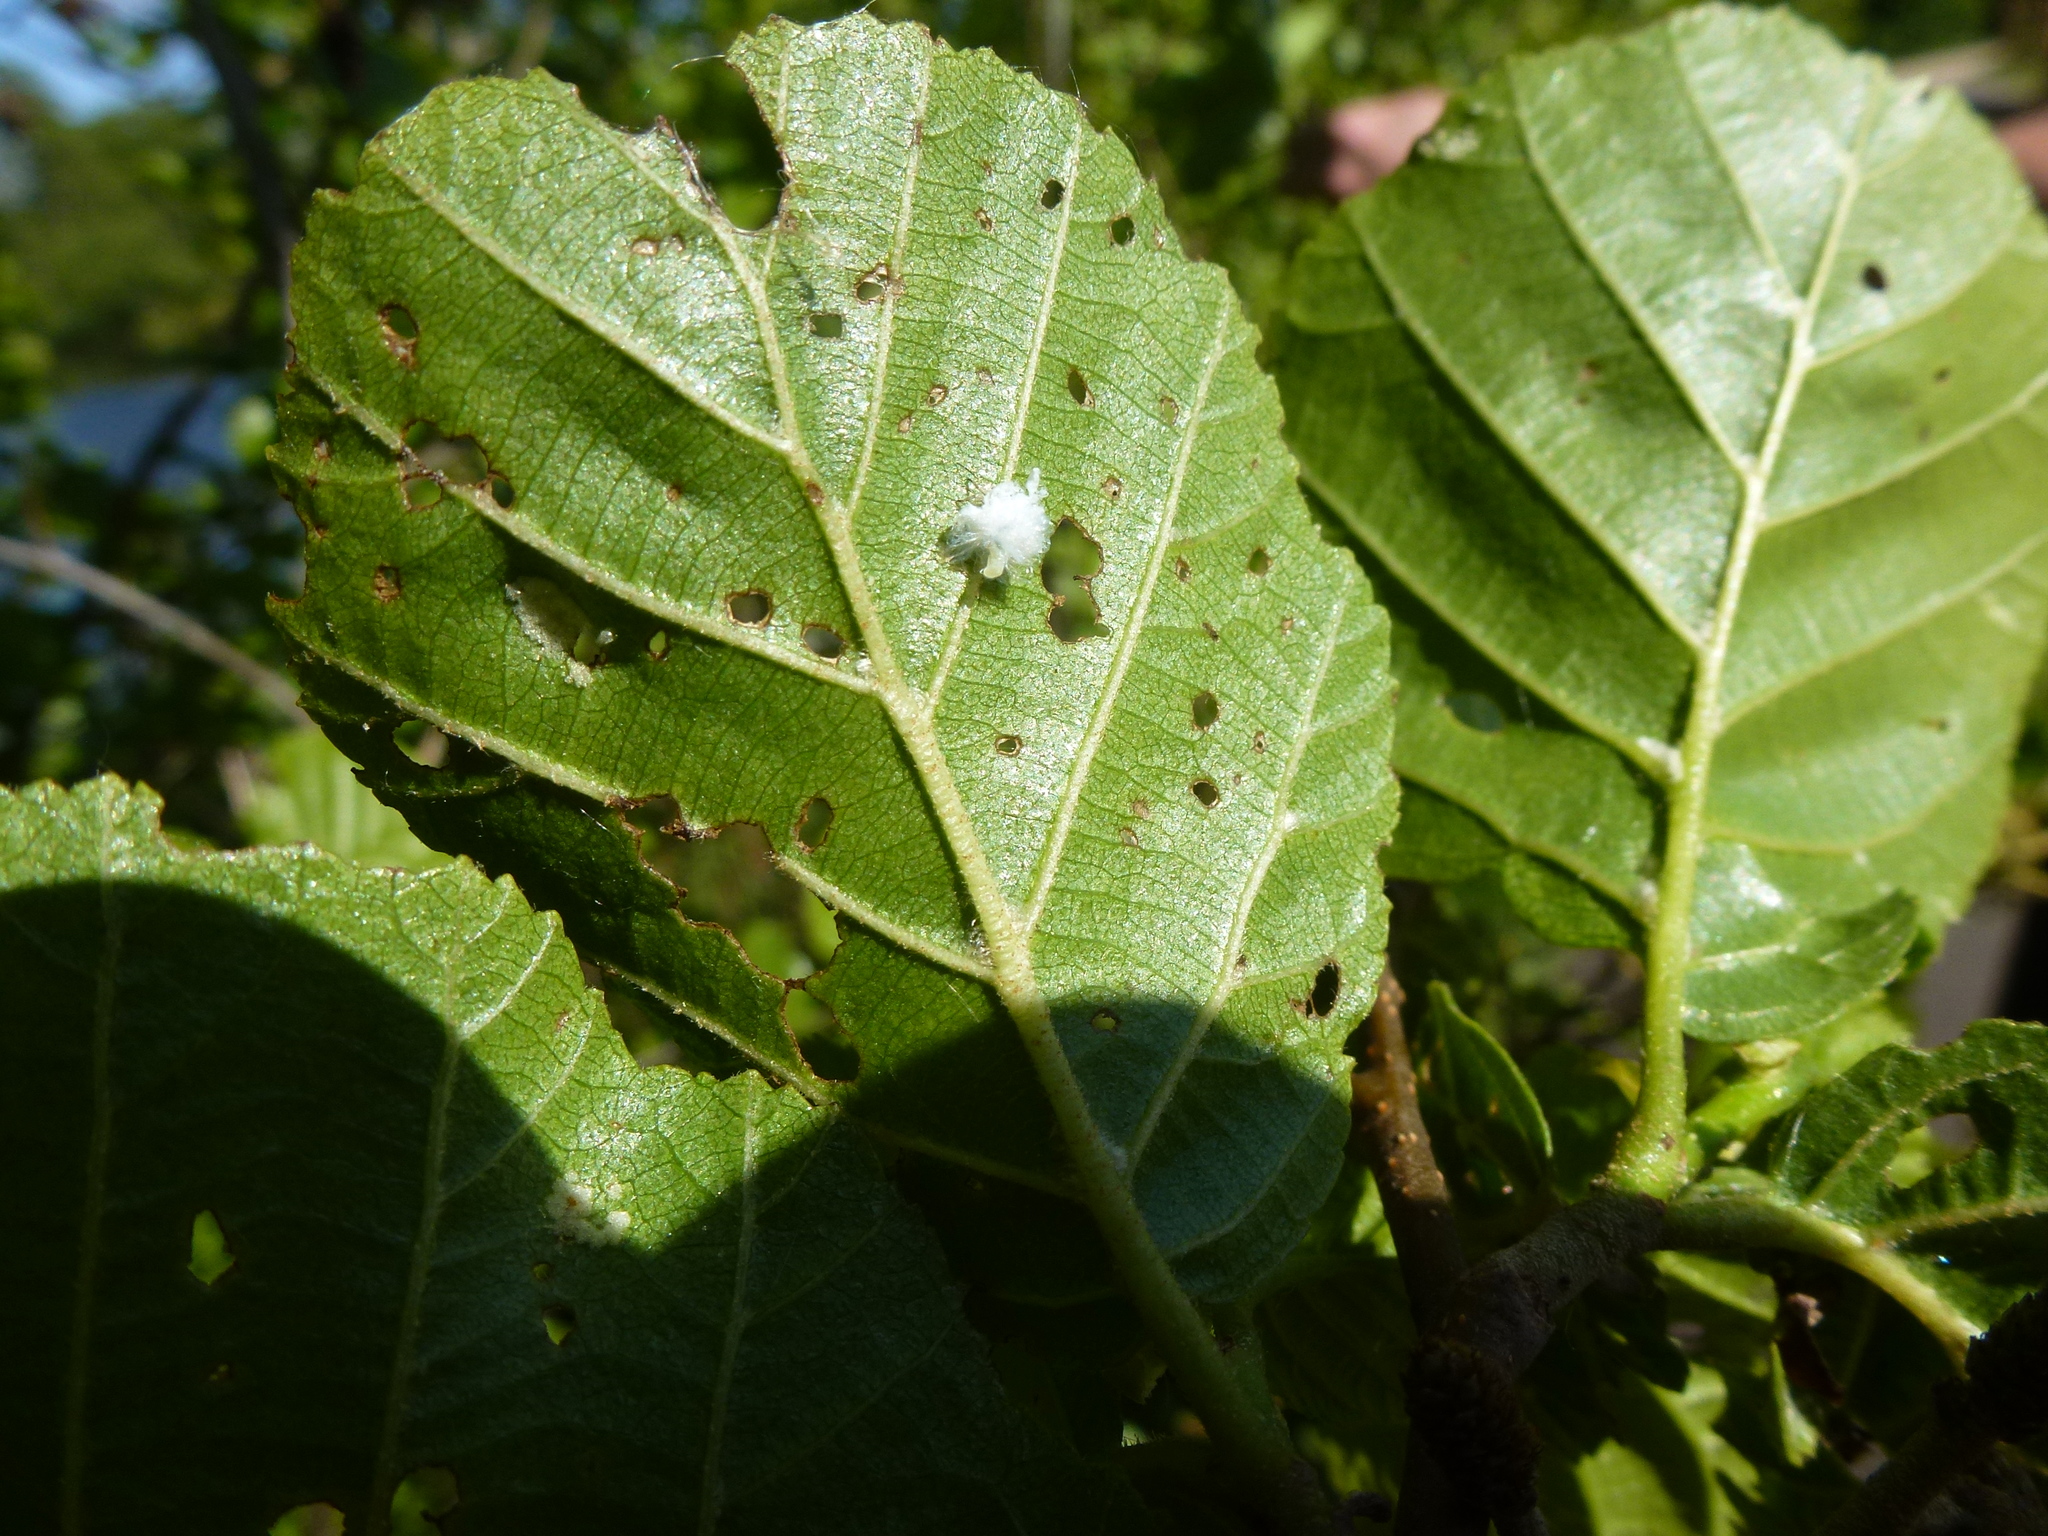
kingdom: Animalia
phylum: Arthropoda
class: Insecta
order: Hemiptera
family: Psyllidae
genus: Psylla
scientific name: Psylla alni
